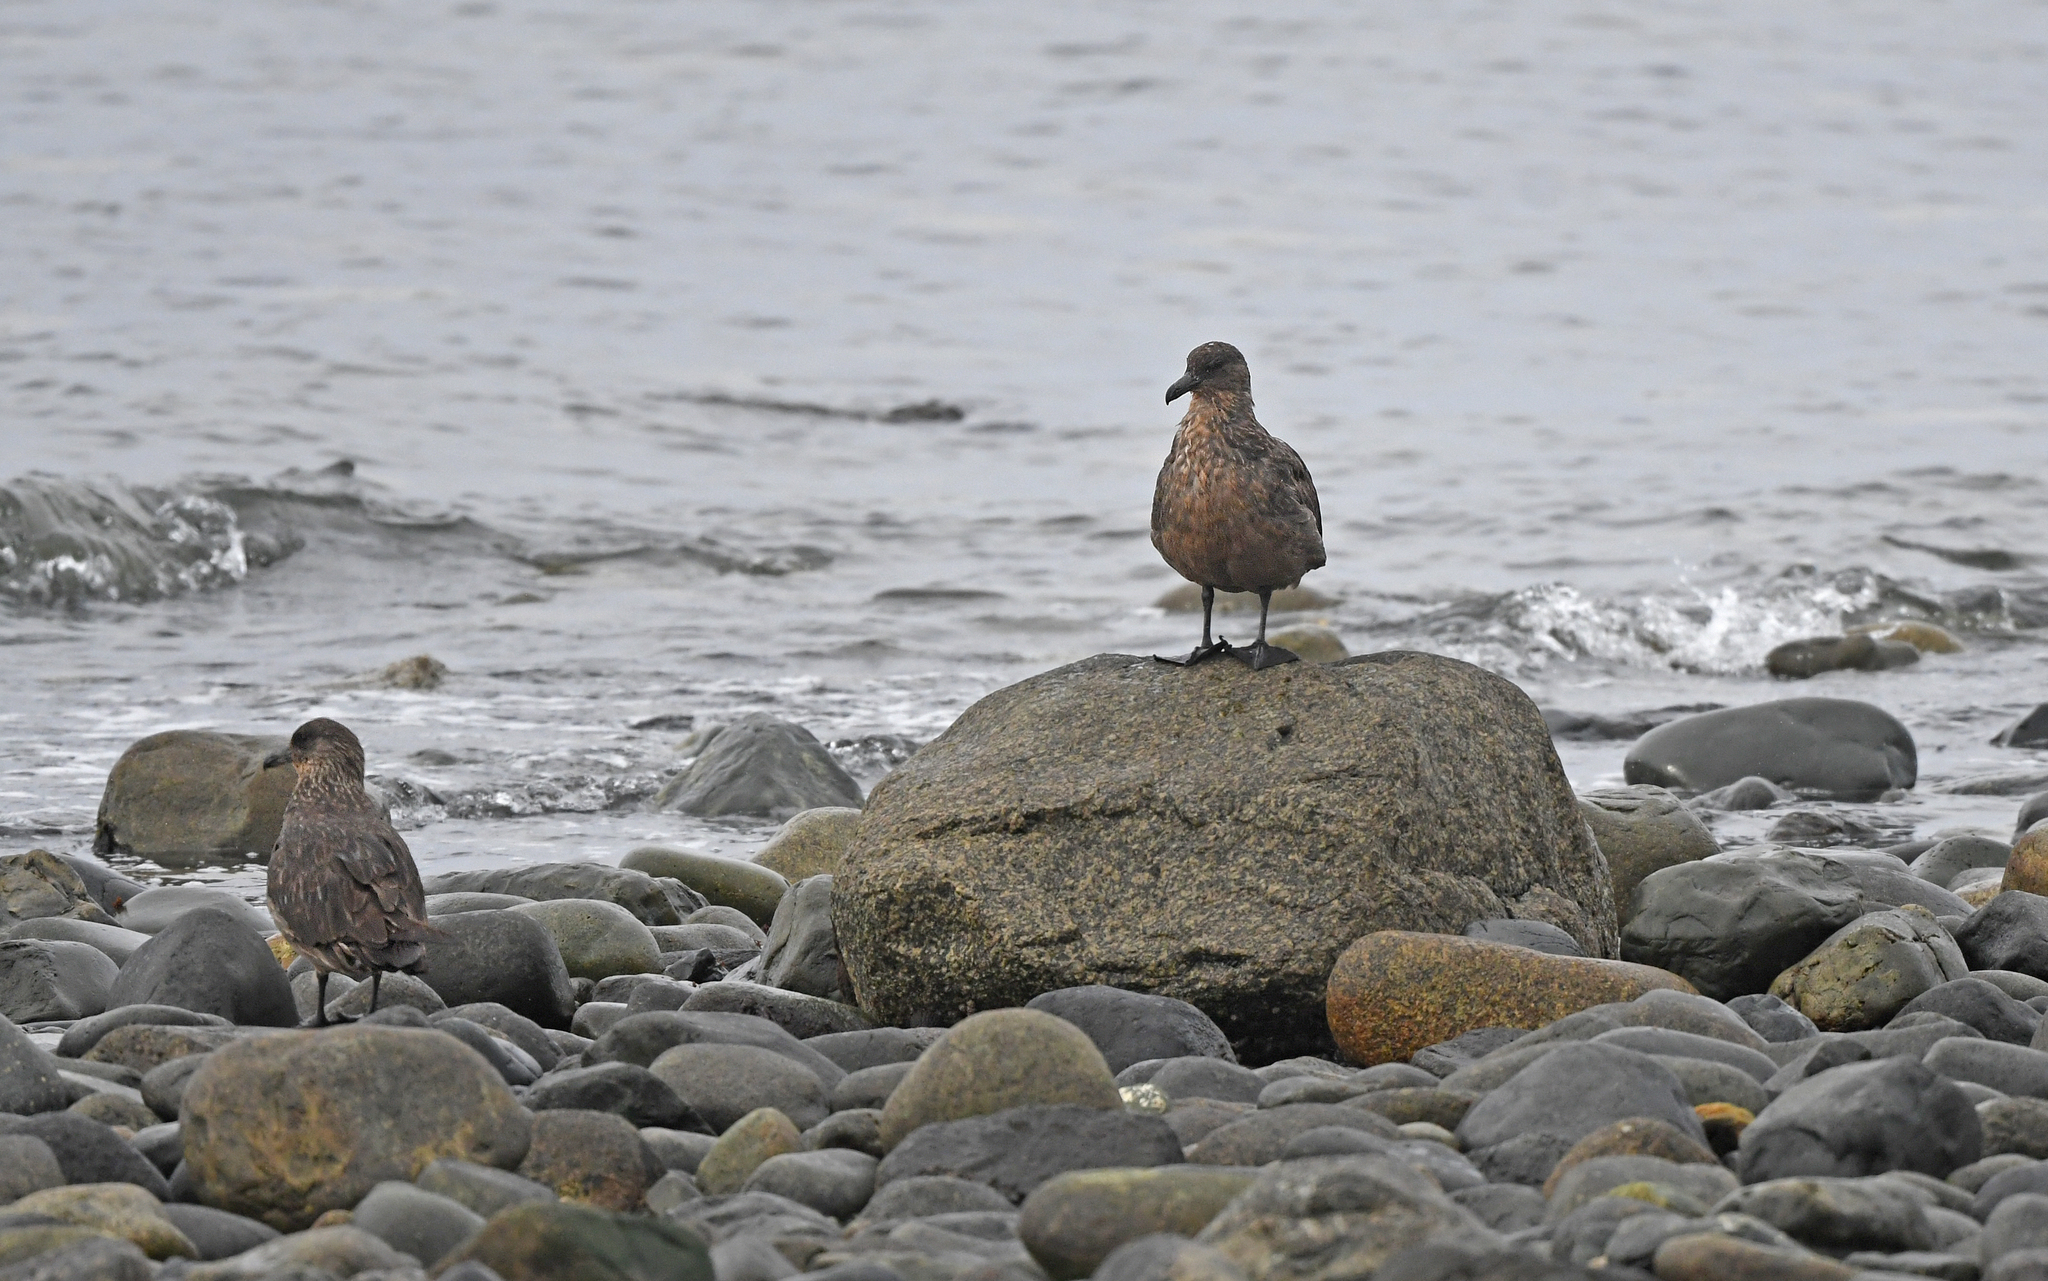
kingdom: Animalia
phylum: Chordata
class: Aves
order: Charadriiformes
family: Stercorariidae
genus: Stercorarius
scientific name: Stercorarius chilensis
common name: Chilean skua
